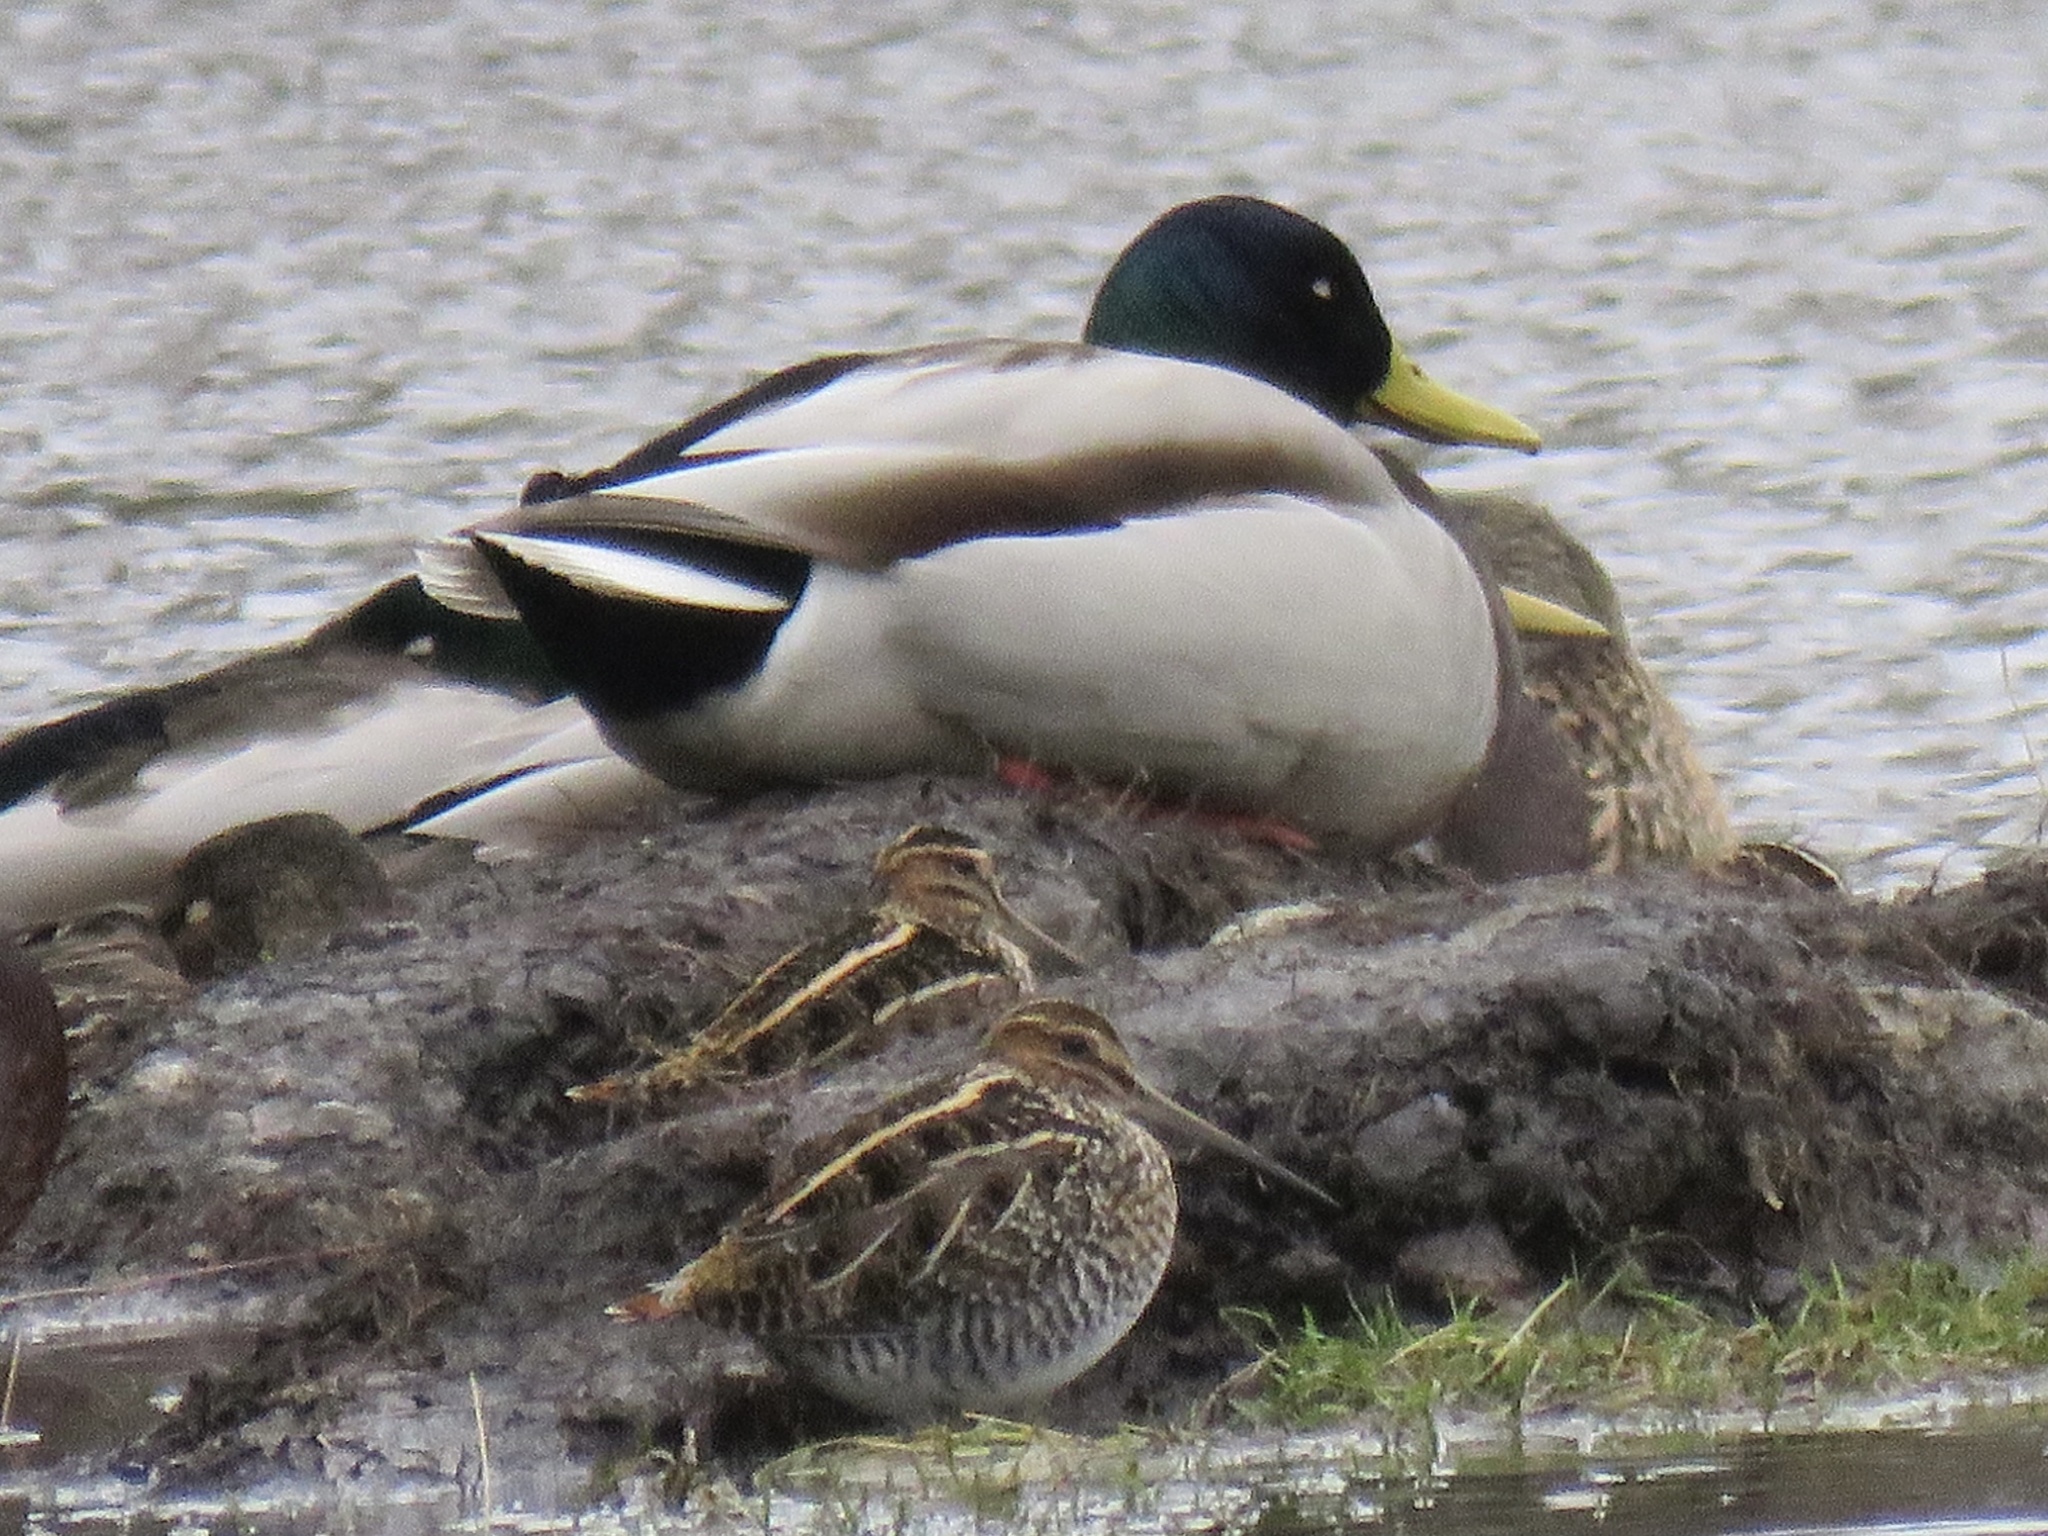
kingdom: Animalia
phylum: Chordata
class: Aves
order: Charadriiformes
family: Scolopacidae
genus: Gallinago
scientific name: Gallinago delicata
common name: Wilson's snipe
